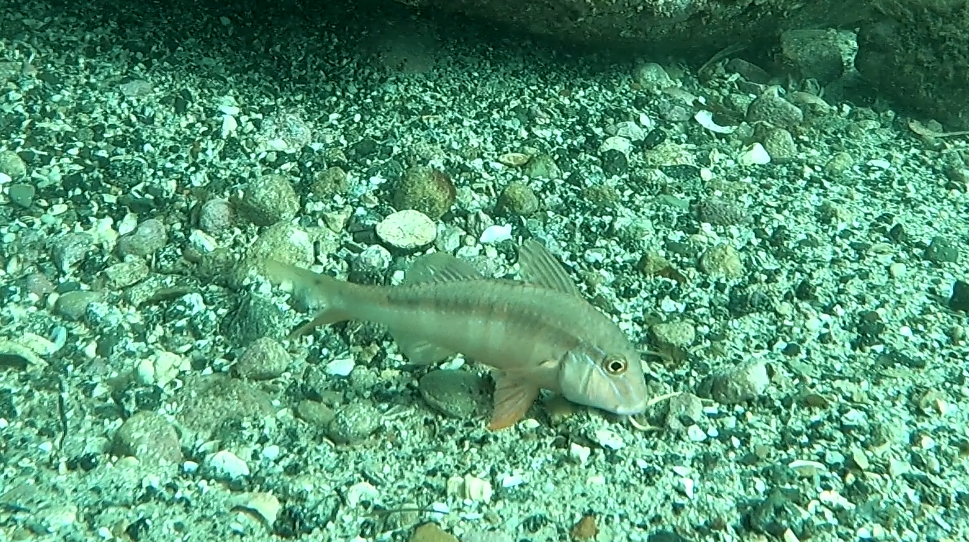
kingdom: Animalia
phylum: Chordata
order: Perciformes
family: Mullidae
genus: Upeneichthys
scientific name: Upeneichthys lineatus
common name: Red mullet
